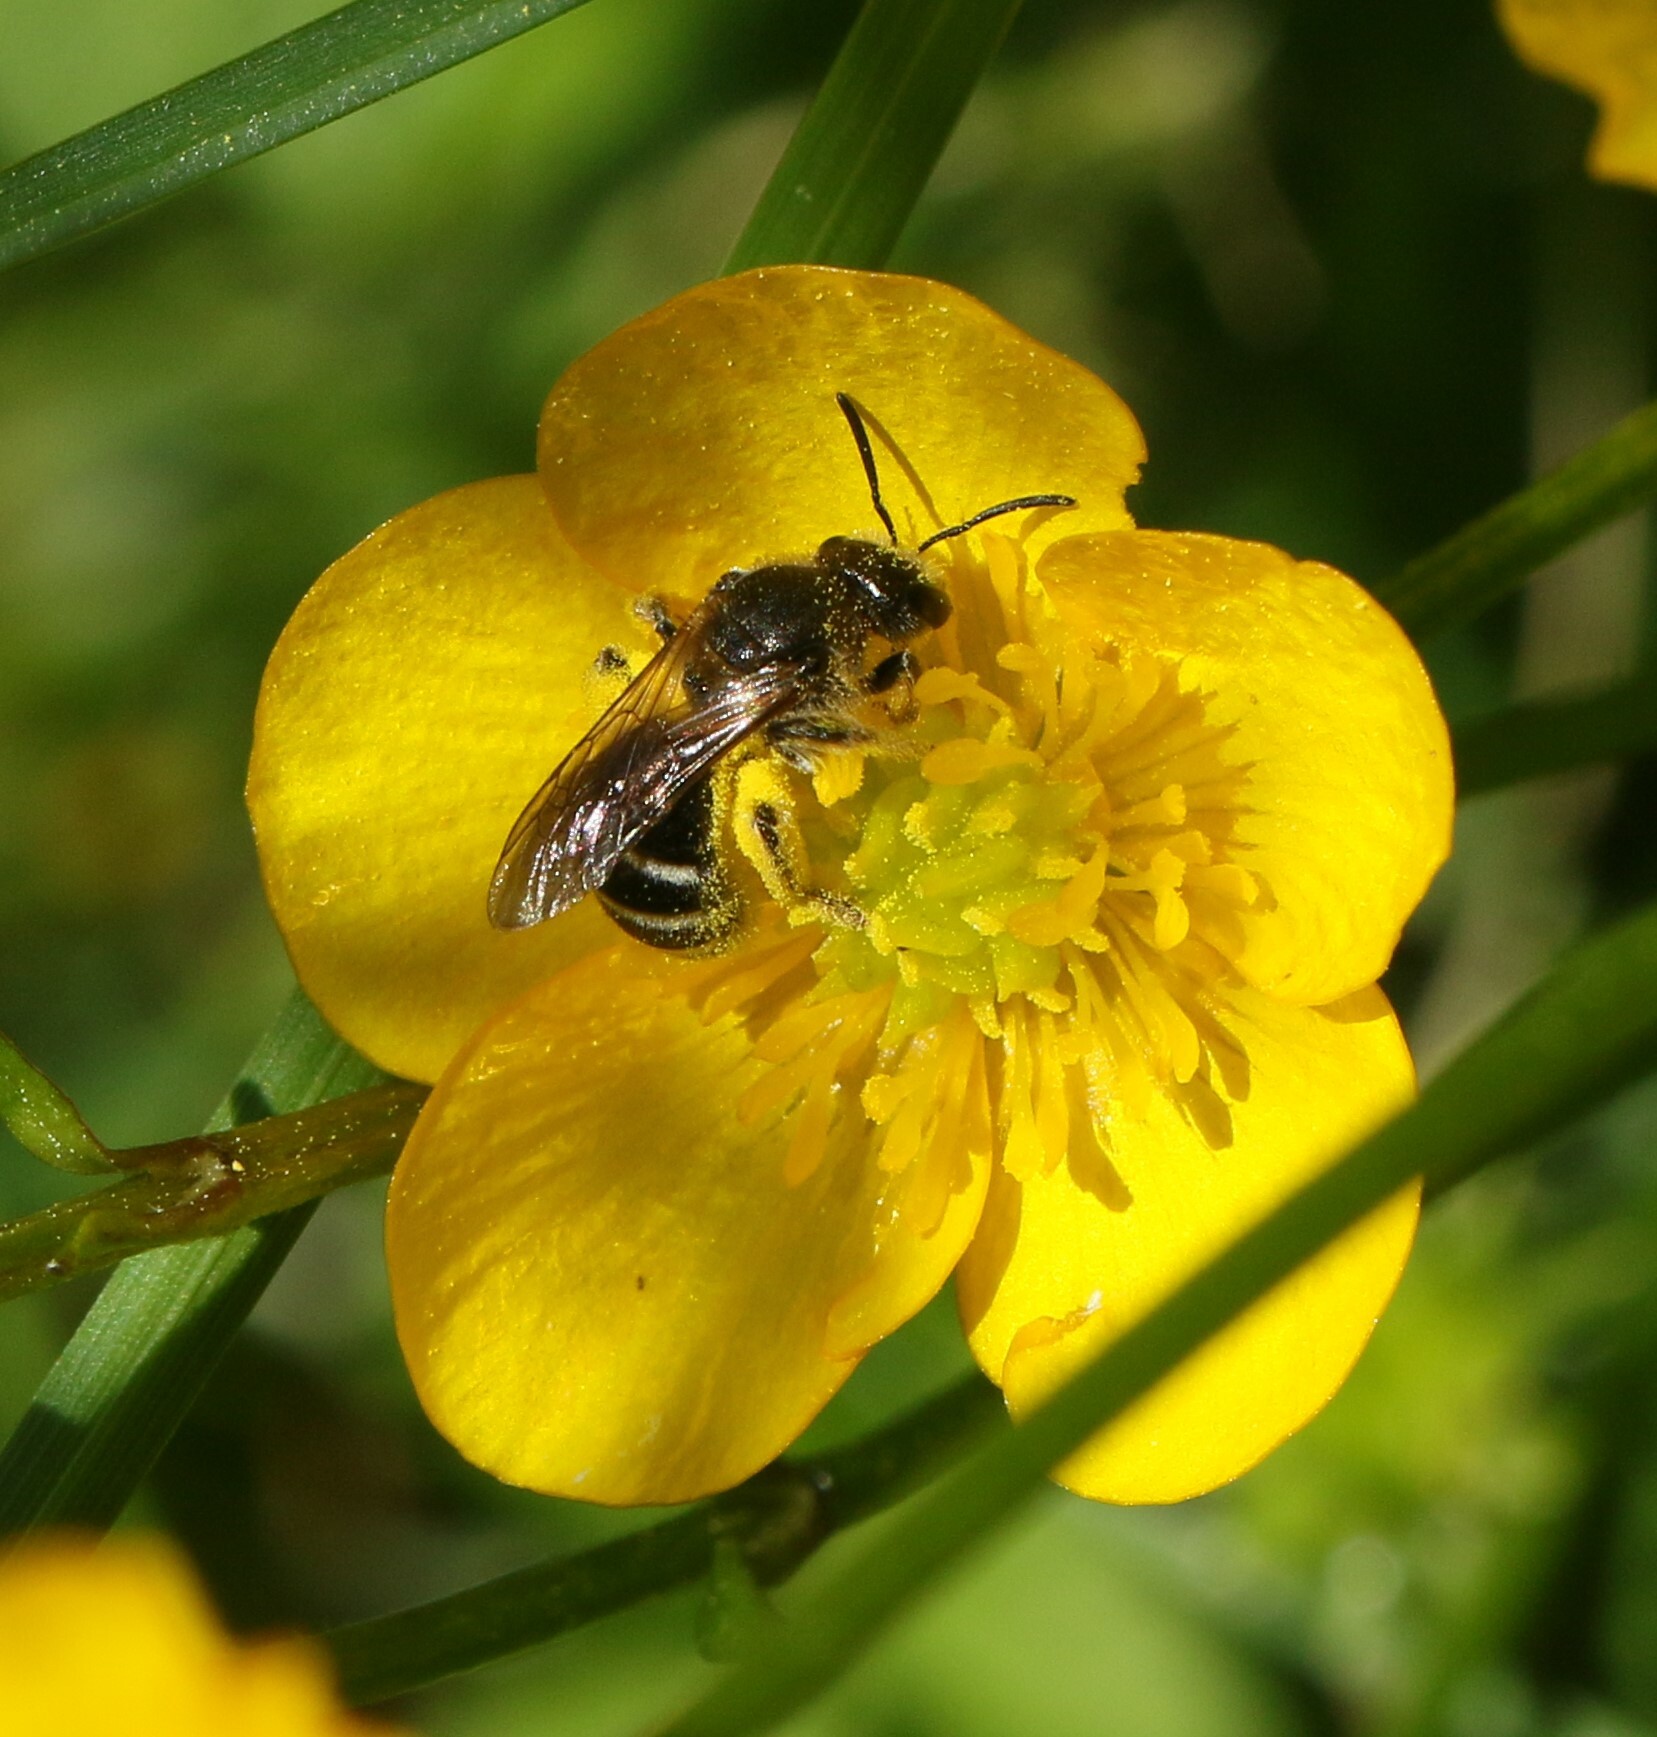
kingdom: Animalia
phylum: Arthropoda
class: Insecta
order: Hymenoptera
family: Halictidae
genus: Lasioglossum
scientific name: Lasioglossum
